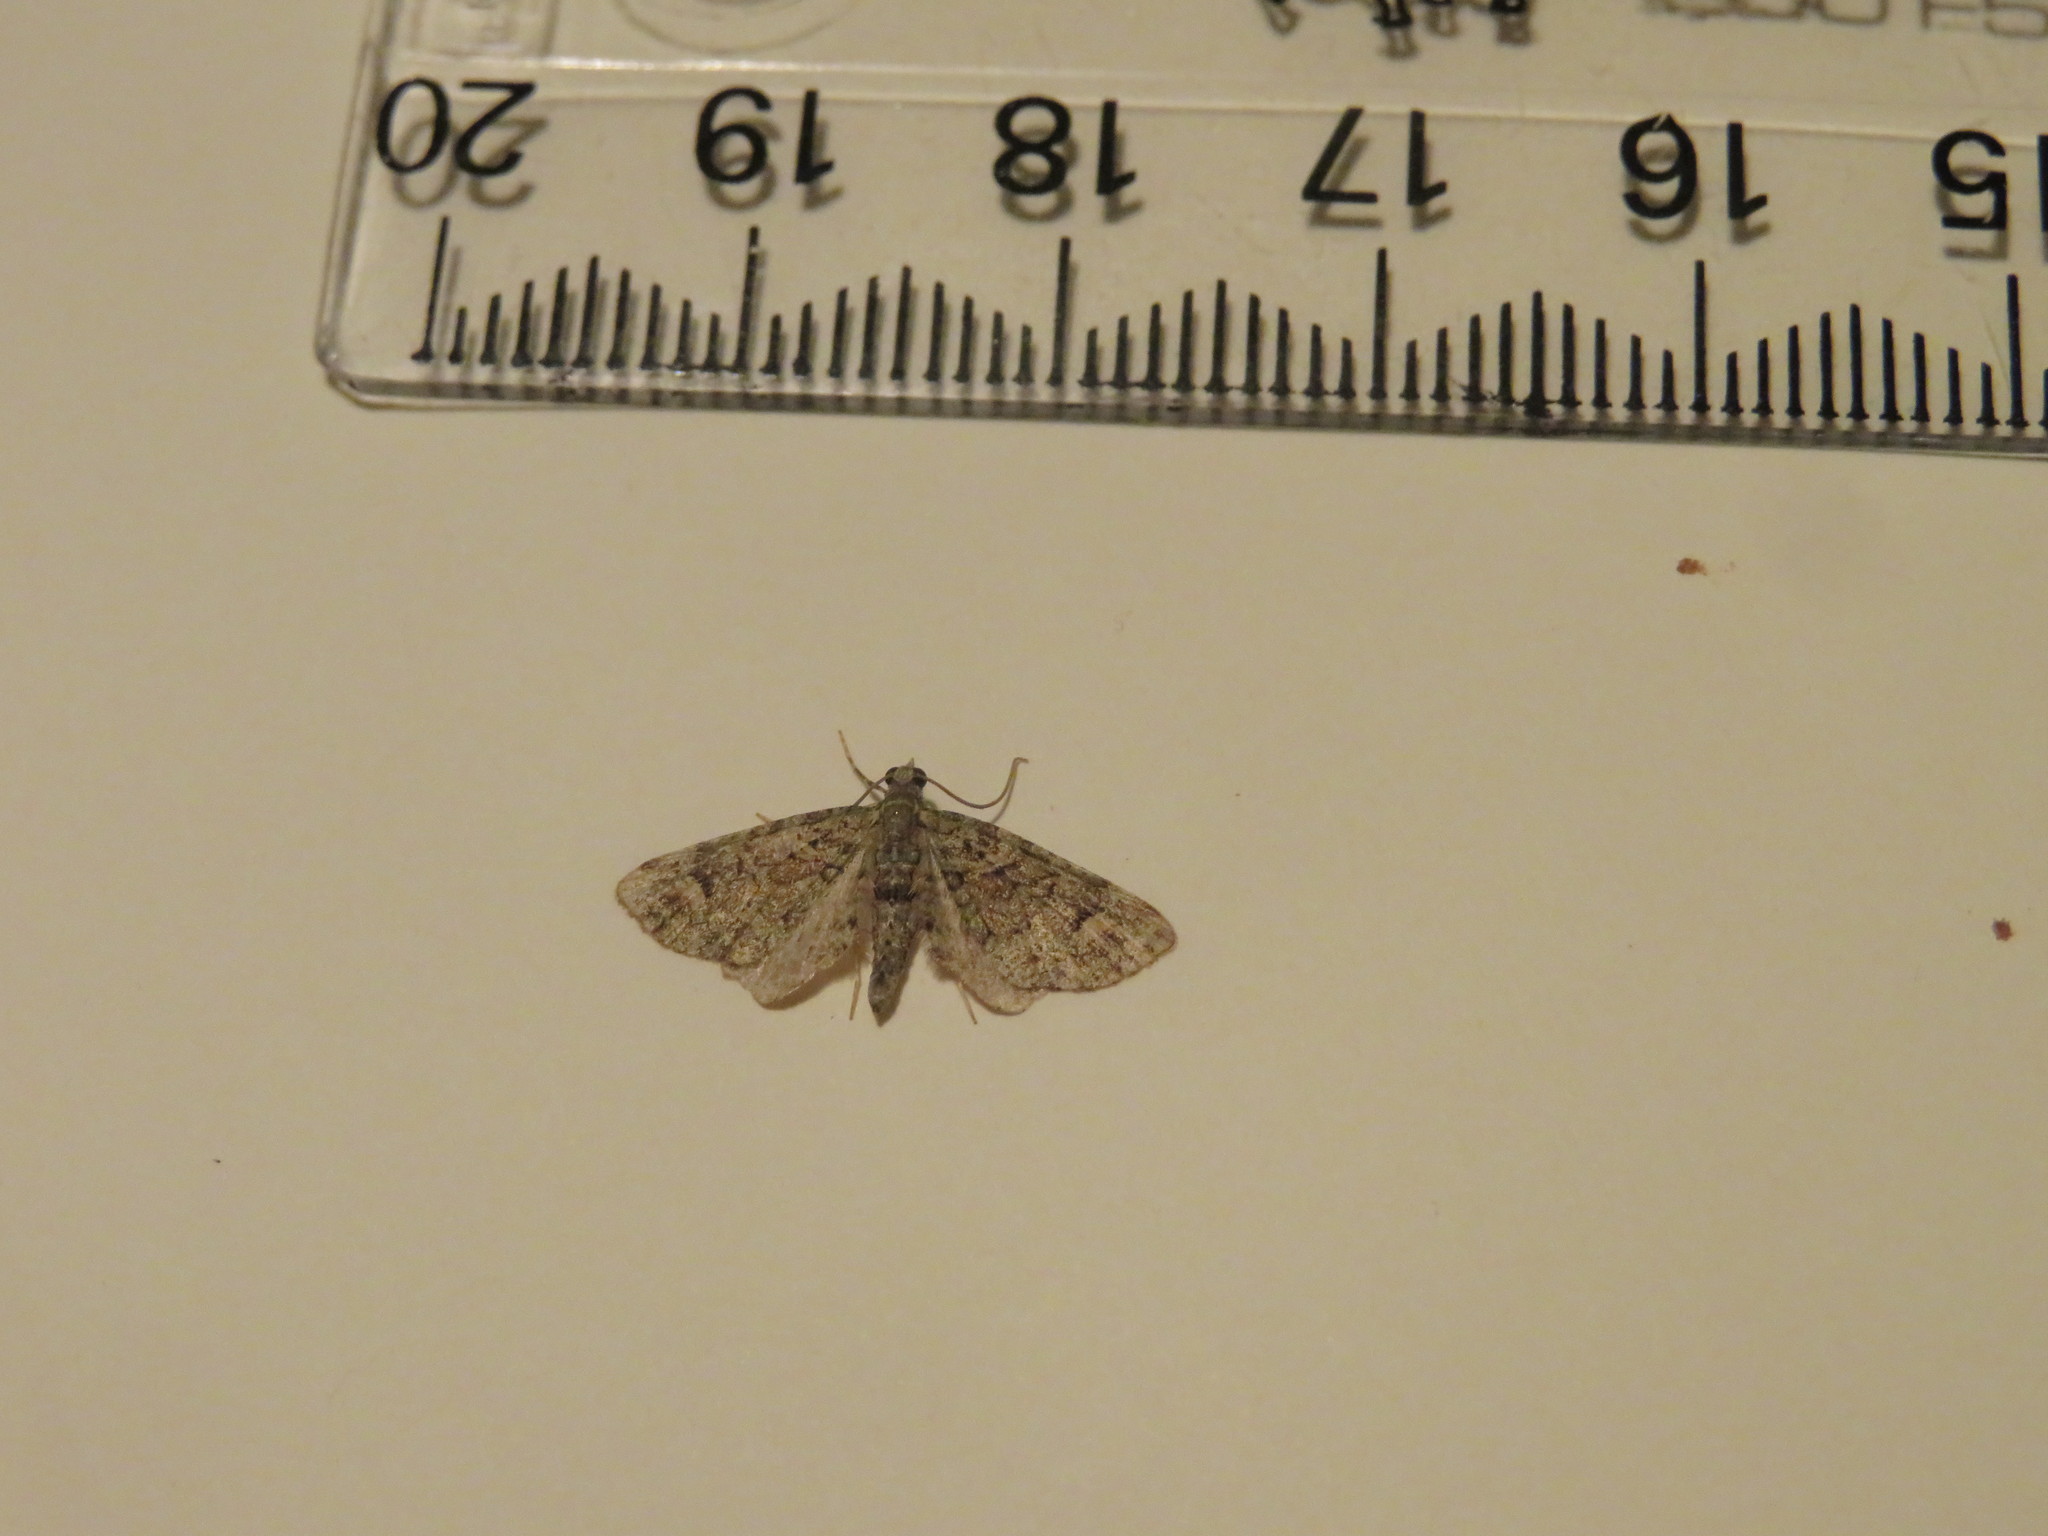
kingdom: Animalia
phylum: Arthropoda
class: Insecta
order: Lepidoptera
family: Geometridae
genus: Idaea
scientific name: Idaea mutanda
